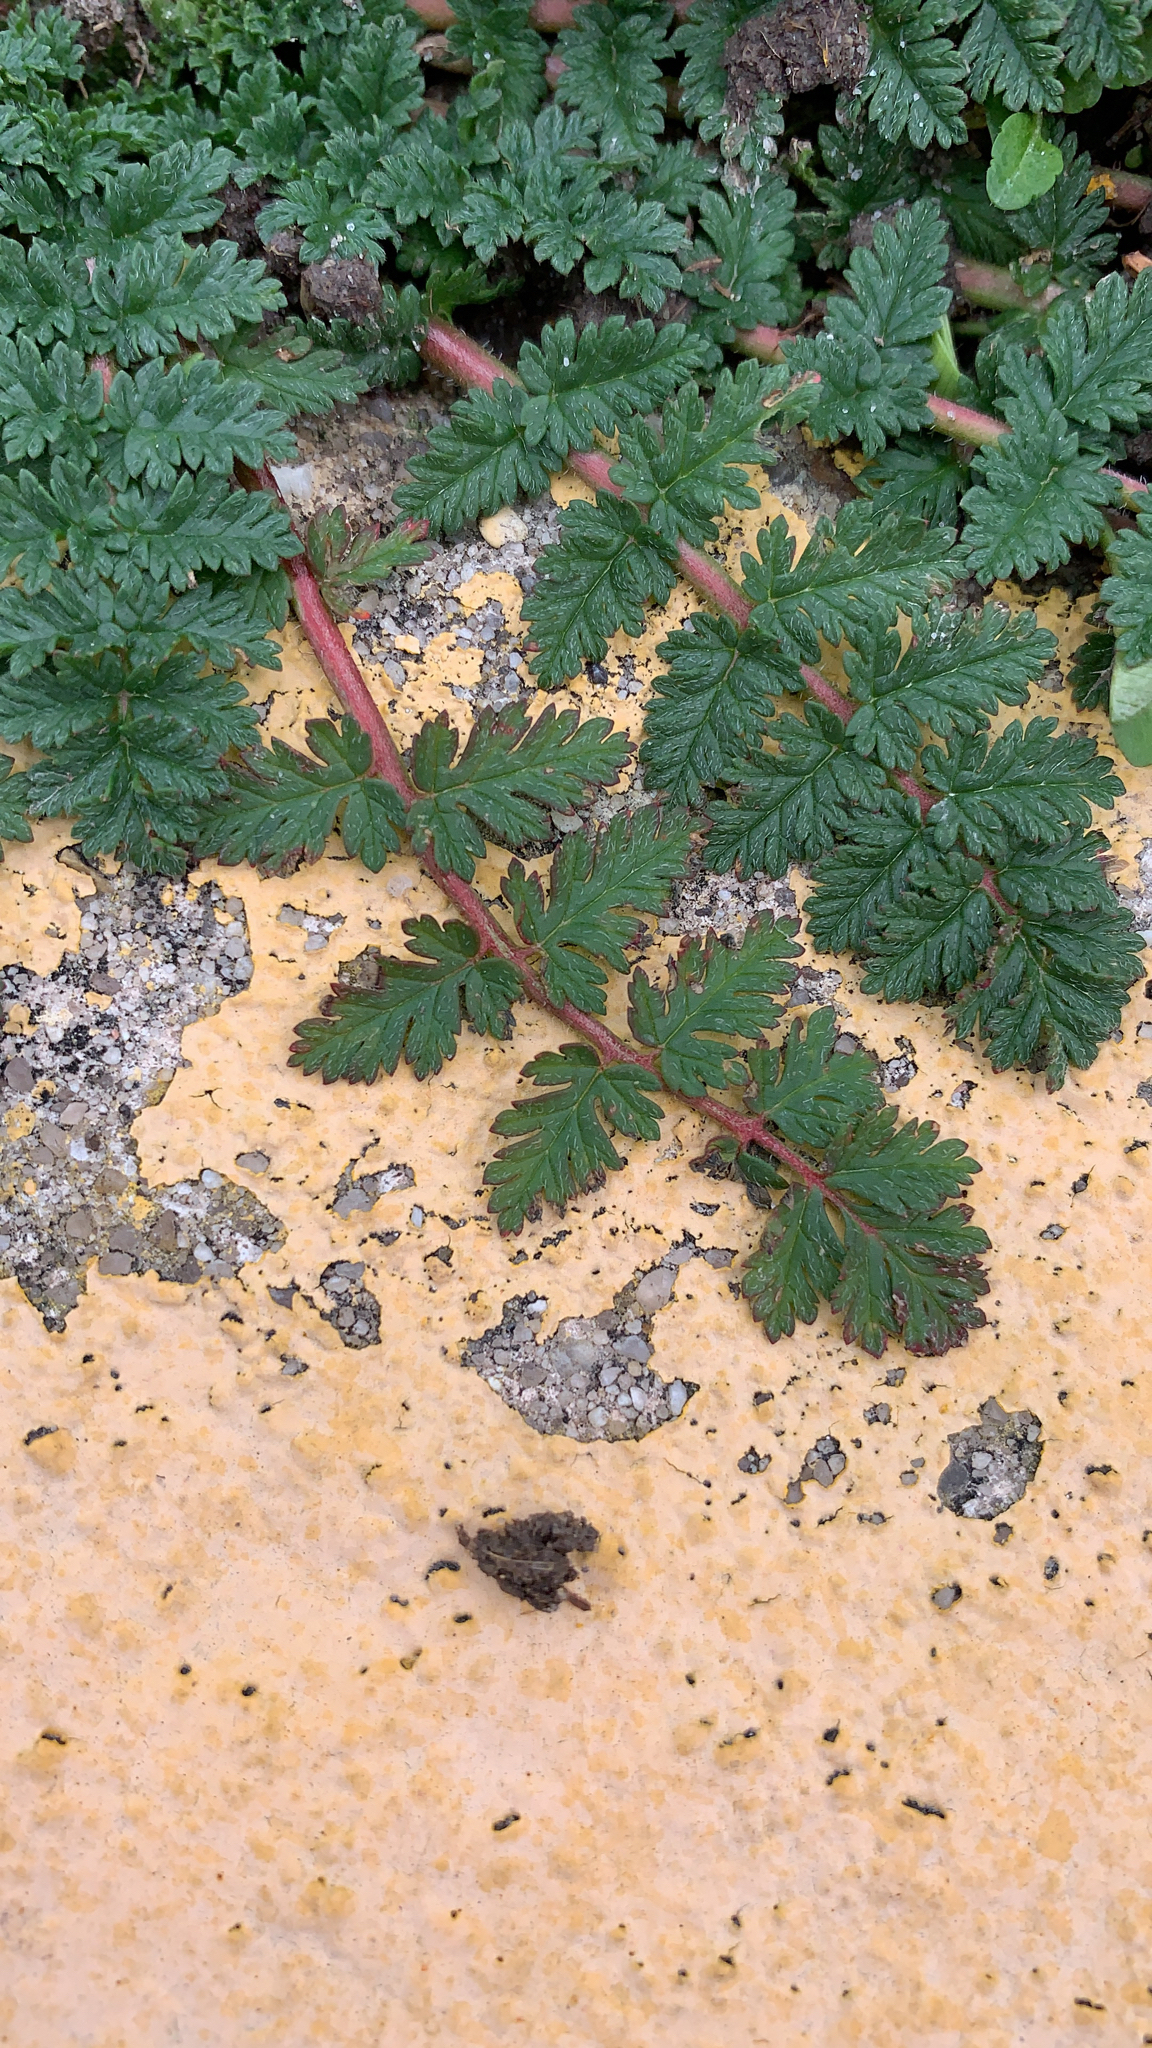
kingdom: Plantae
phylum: Tracheophyta
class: Magnoliopsida
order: Geraniales
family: Geraniaceae
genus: Erodium
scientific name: Erodium cicutarium
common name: Common stork's-bill
